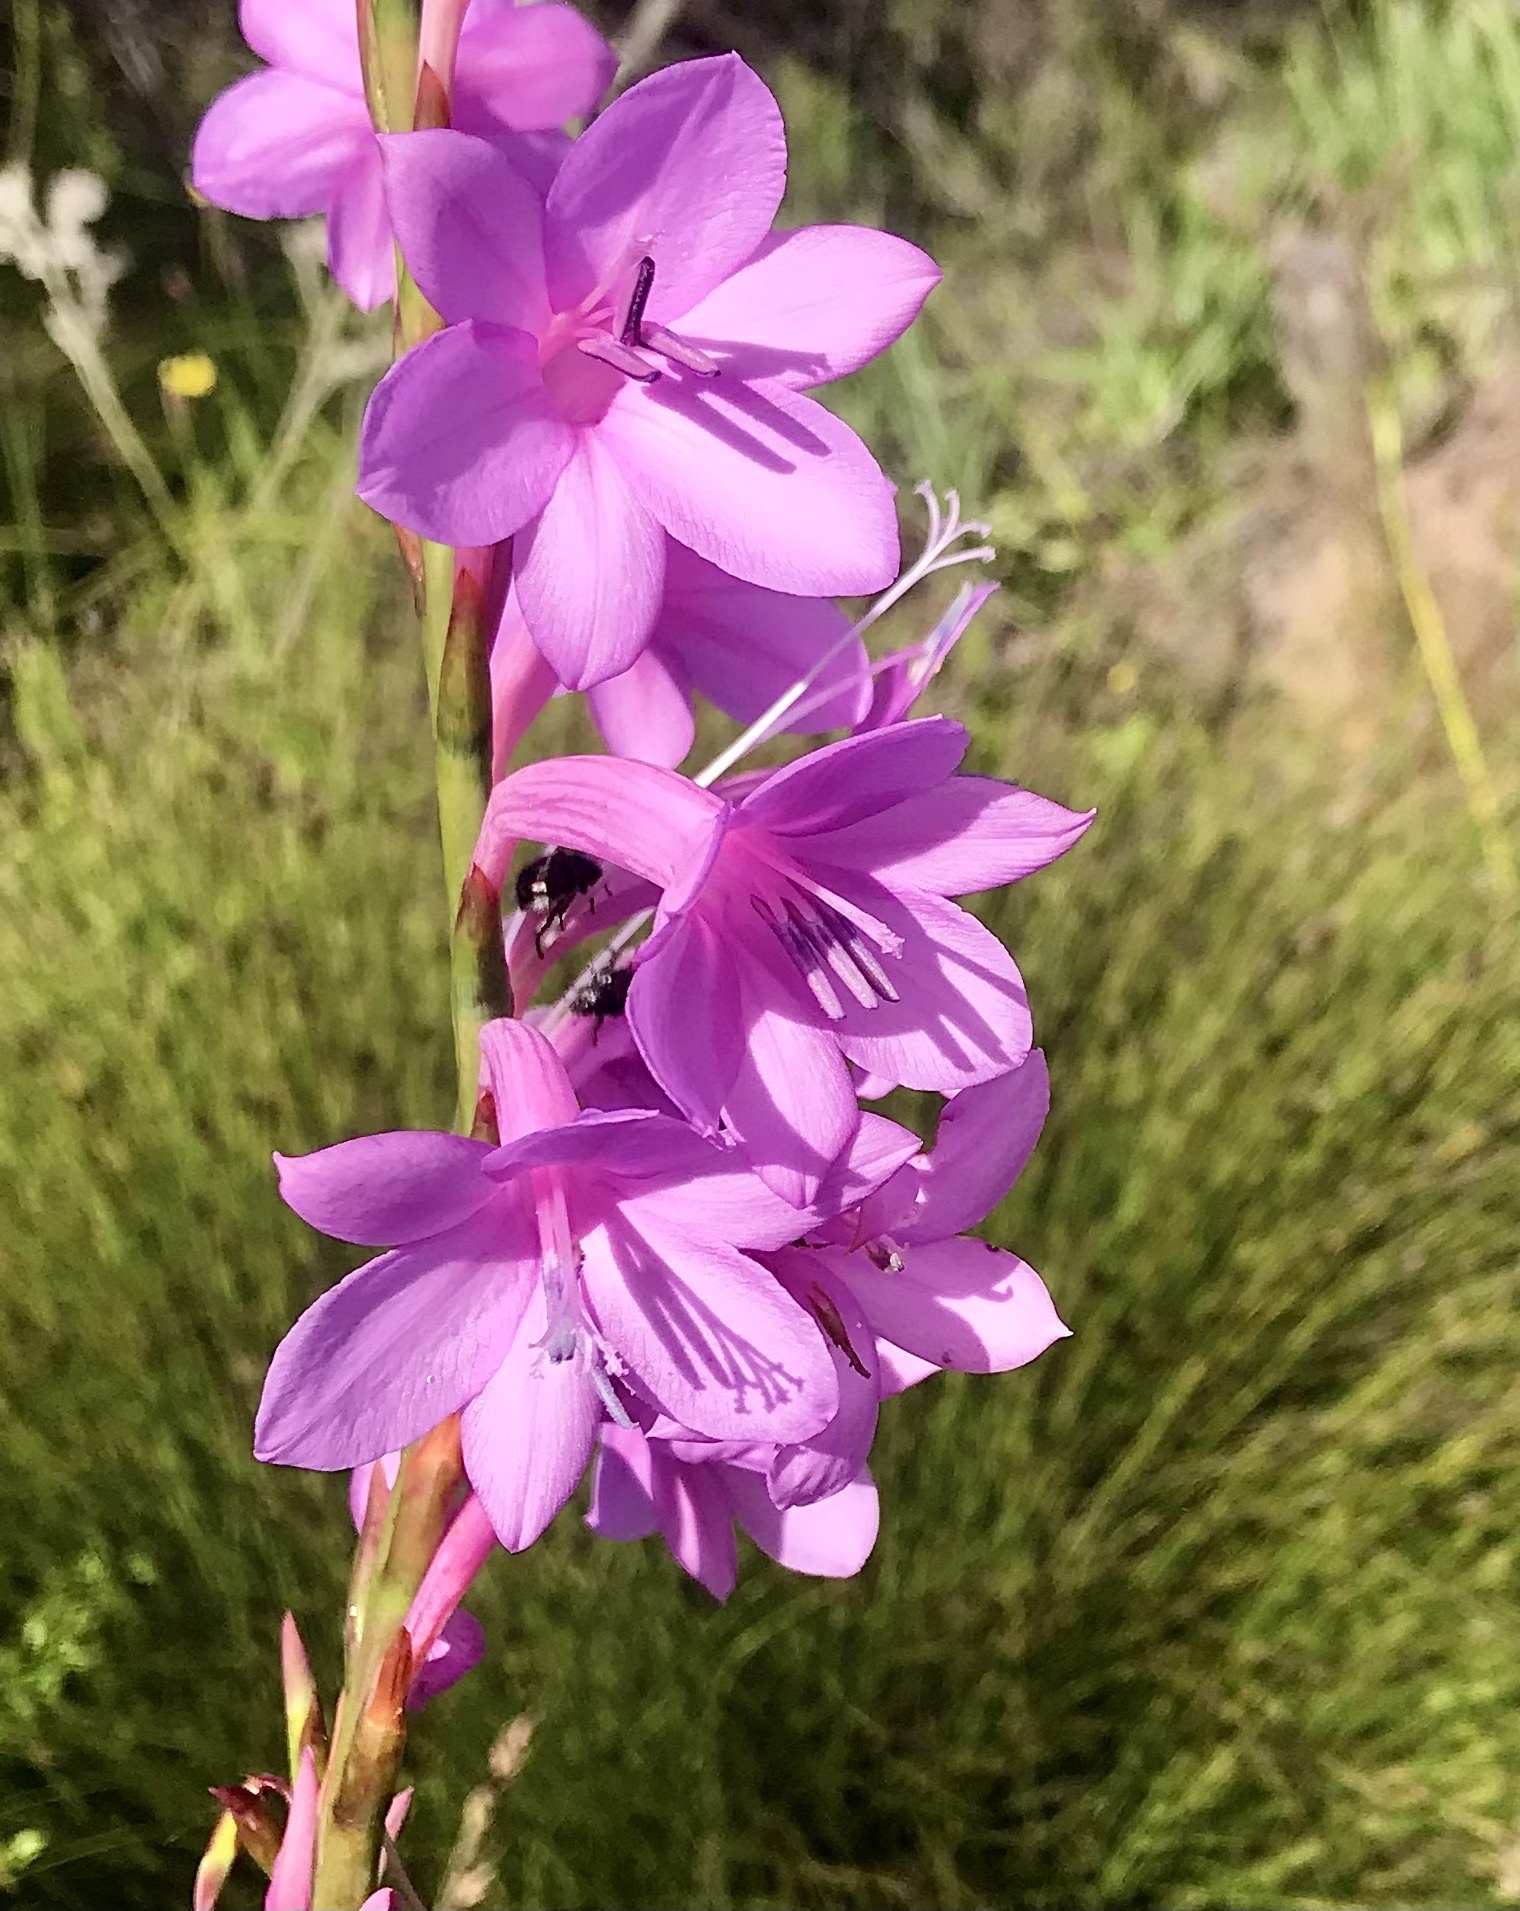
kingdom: Plantae
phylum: Tracheophyta
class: Liliopsida
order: Asparagales
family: Iridaceae
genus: Watsonia
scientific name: Watsonia knysnana
